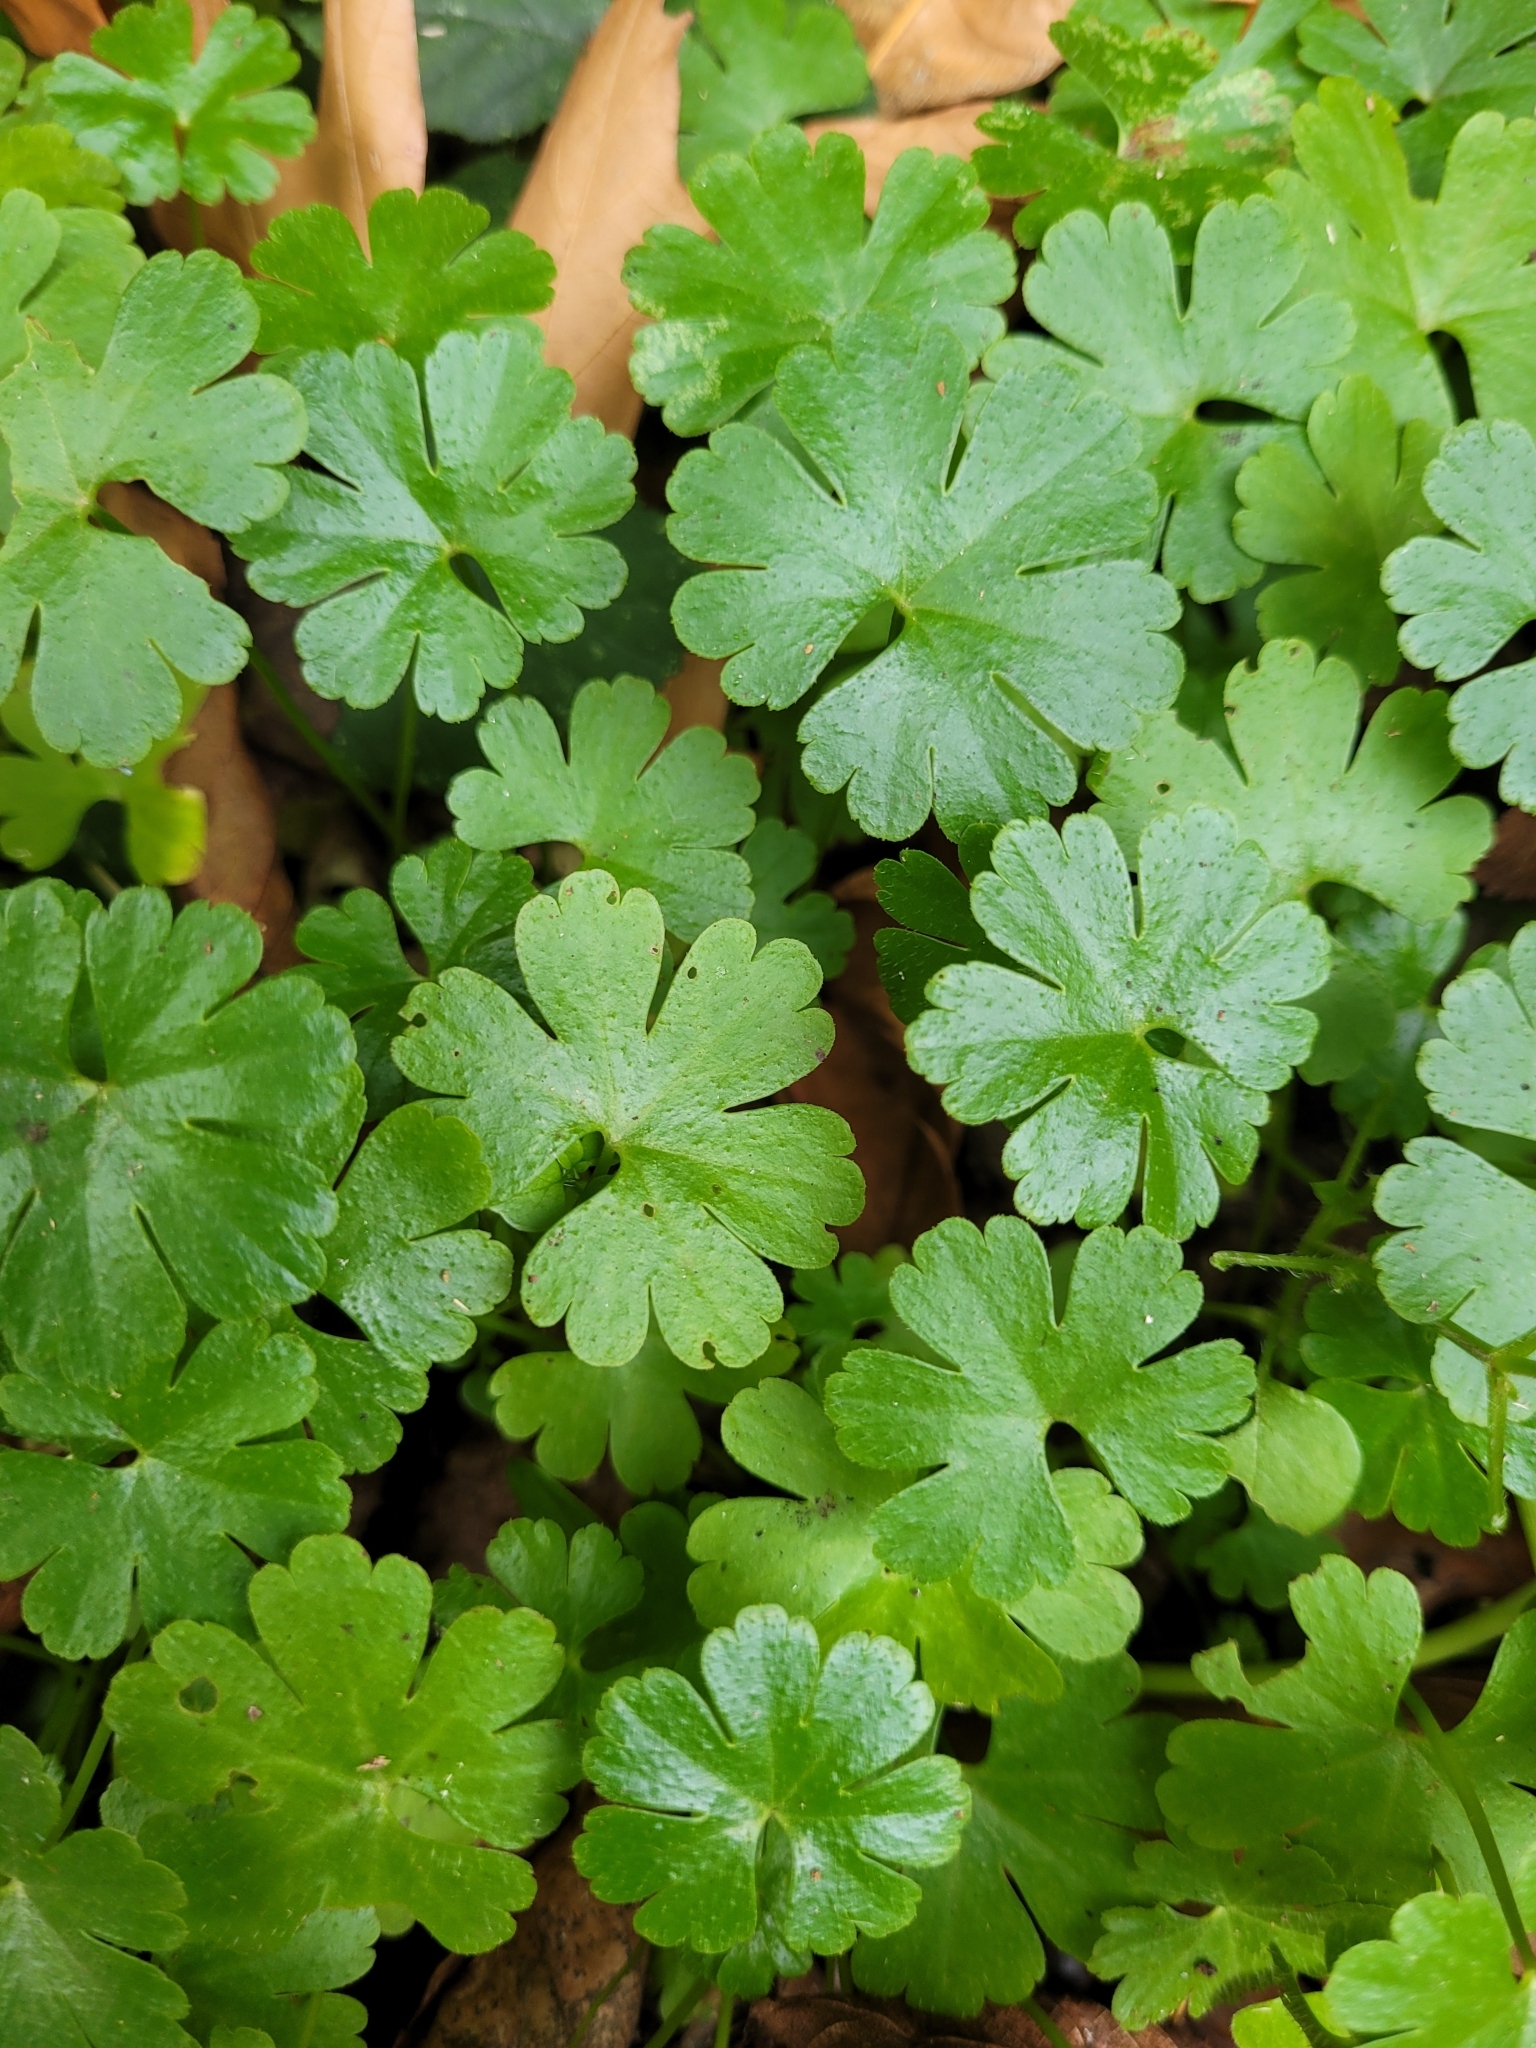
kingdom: Plantae
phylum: Tracheophyta
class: Magnoliopsida
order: Geraniales
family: Geraniaceae
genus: Geranium
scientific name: Geranium lucidum
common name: Shining crane's-bill
